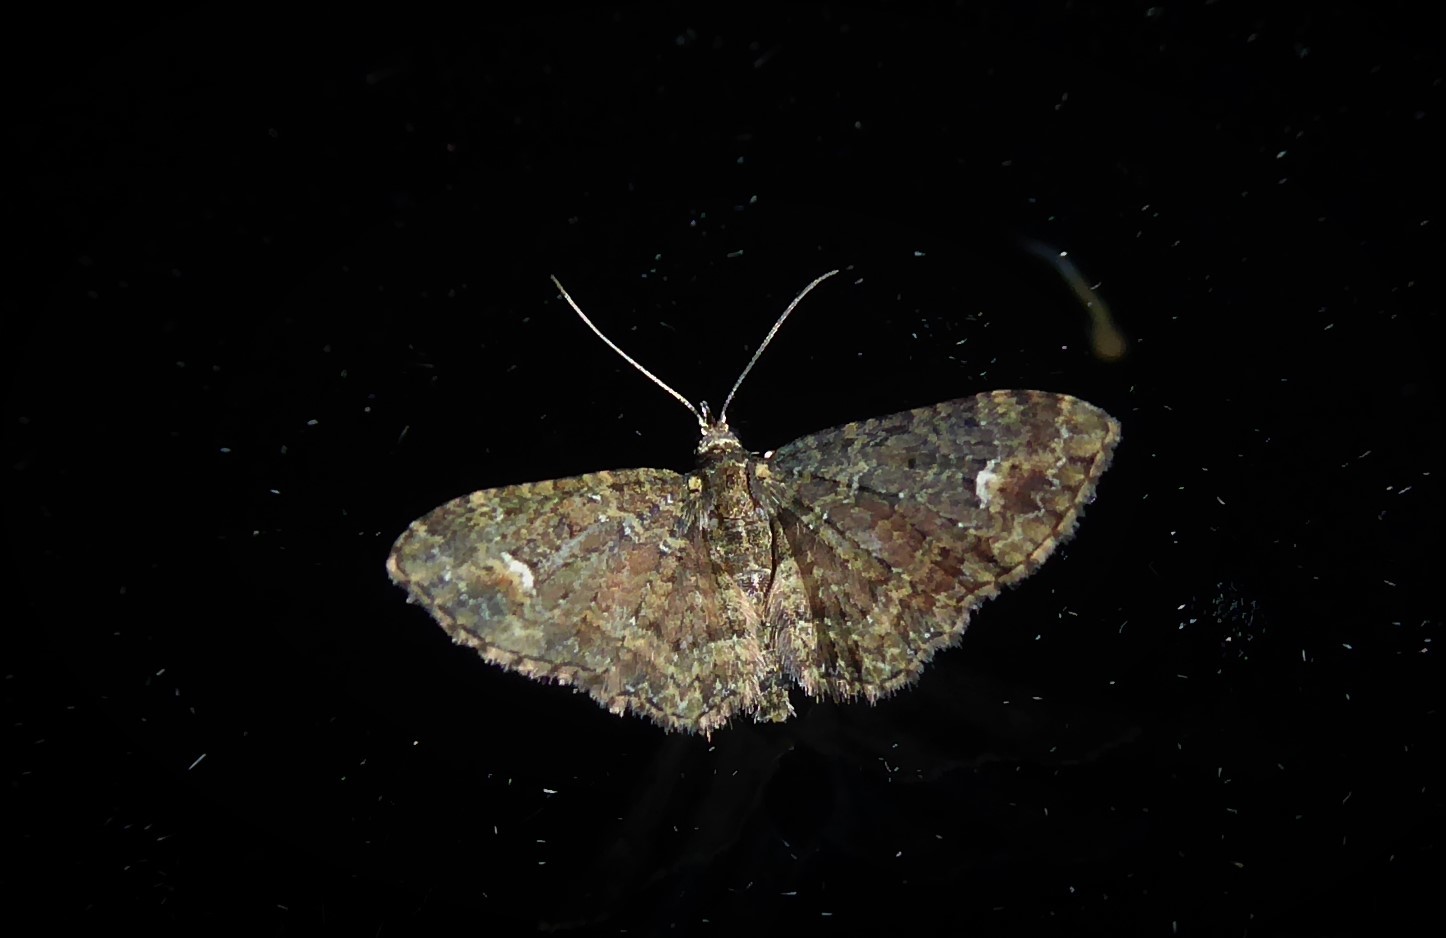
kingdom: Animalia
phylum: Arthropoda
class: Insecta
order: Lepidoptera
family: Geometridae
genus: Pasiphilodes
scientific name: Pasiphilodes testulata
